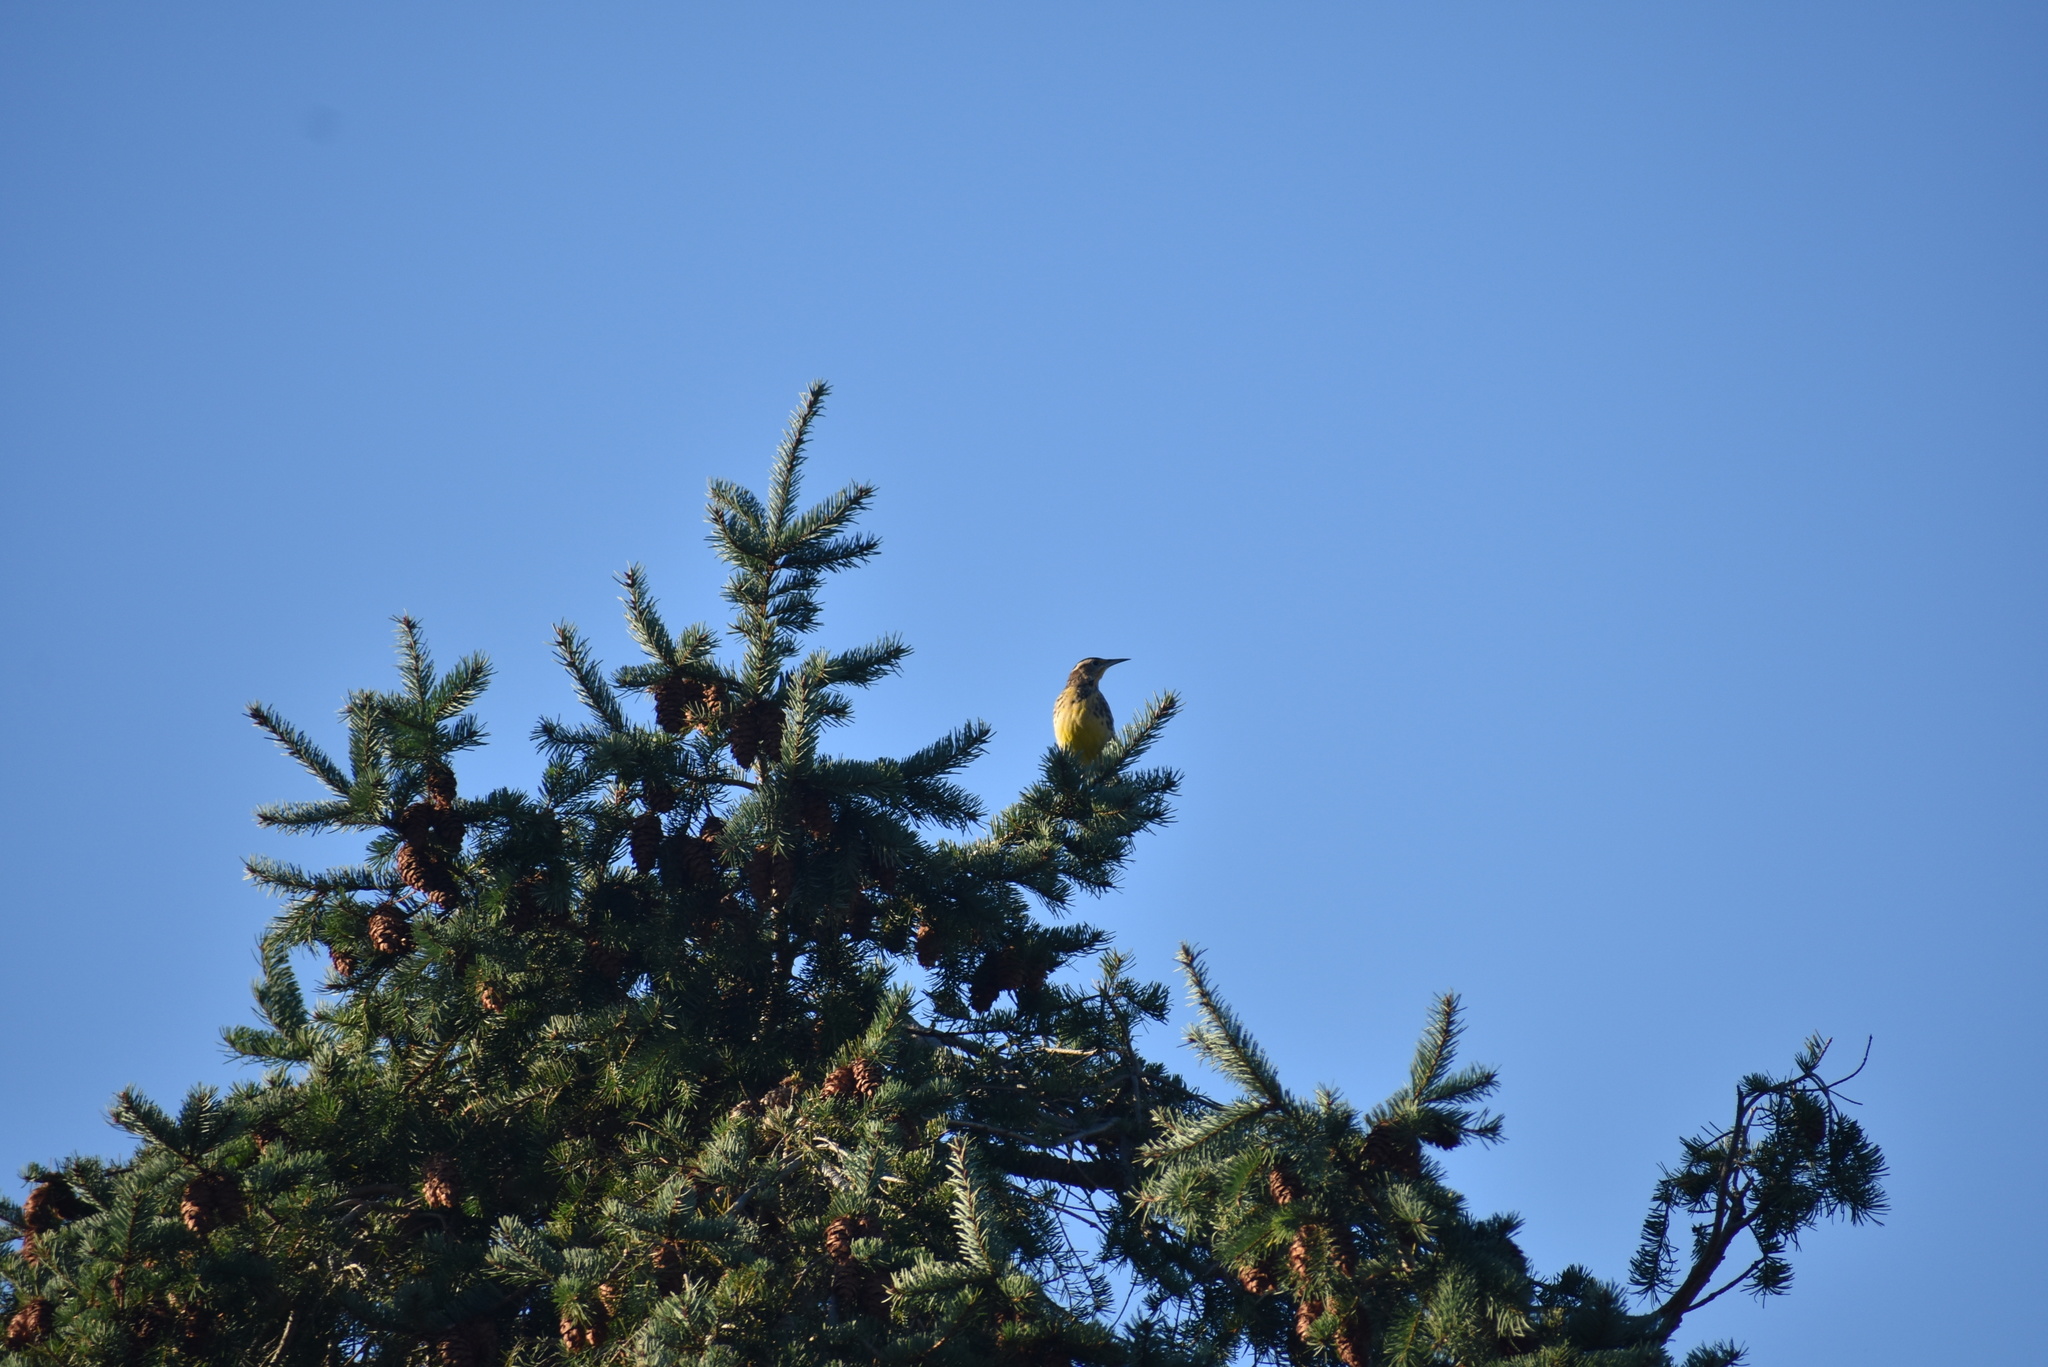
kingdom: Animalia
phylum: Chordata
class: Aves
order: Passeriformes
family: Icteridae
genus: Sturnella
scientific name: Sturnella neglecta
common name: Western meadowlark
